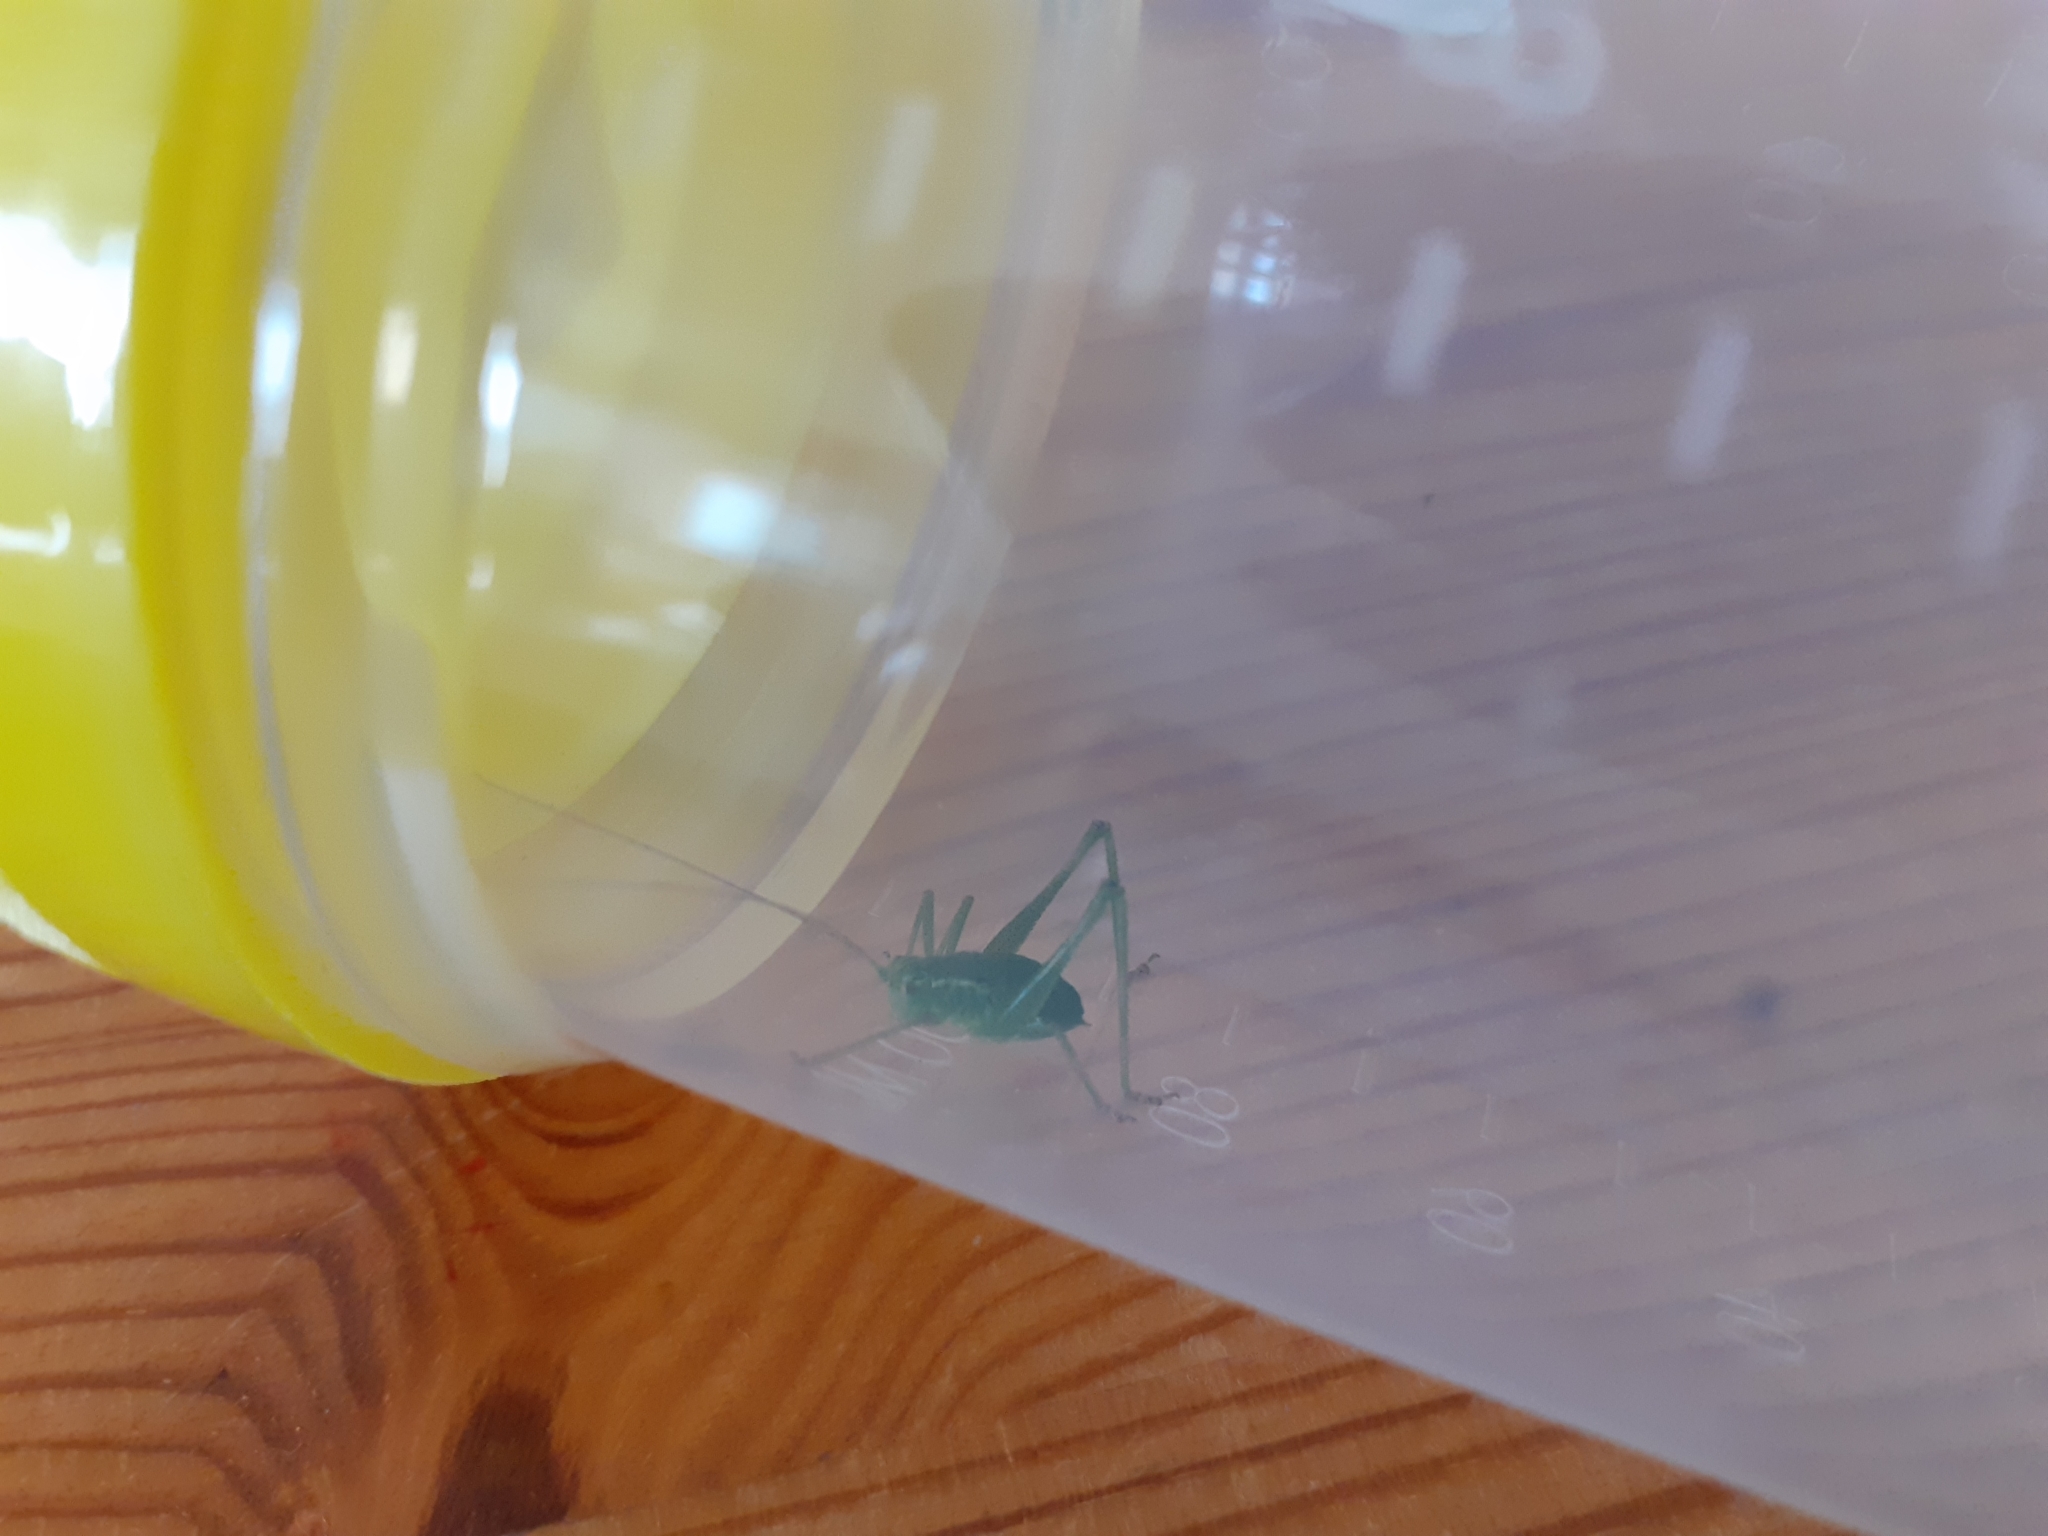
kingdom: Animalia
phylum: Arthropoda
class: Insecta
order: Orthoptera
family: Tettigoniidae
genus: Leptophyes
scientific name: Leptophyes punctatissima
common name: Speckled bush-cricket
